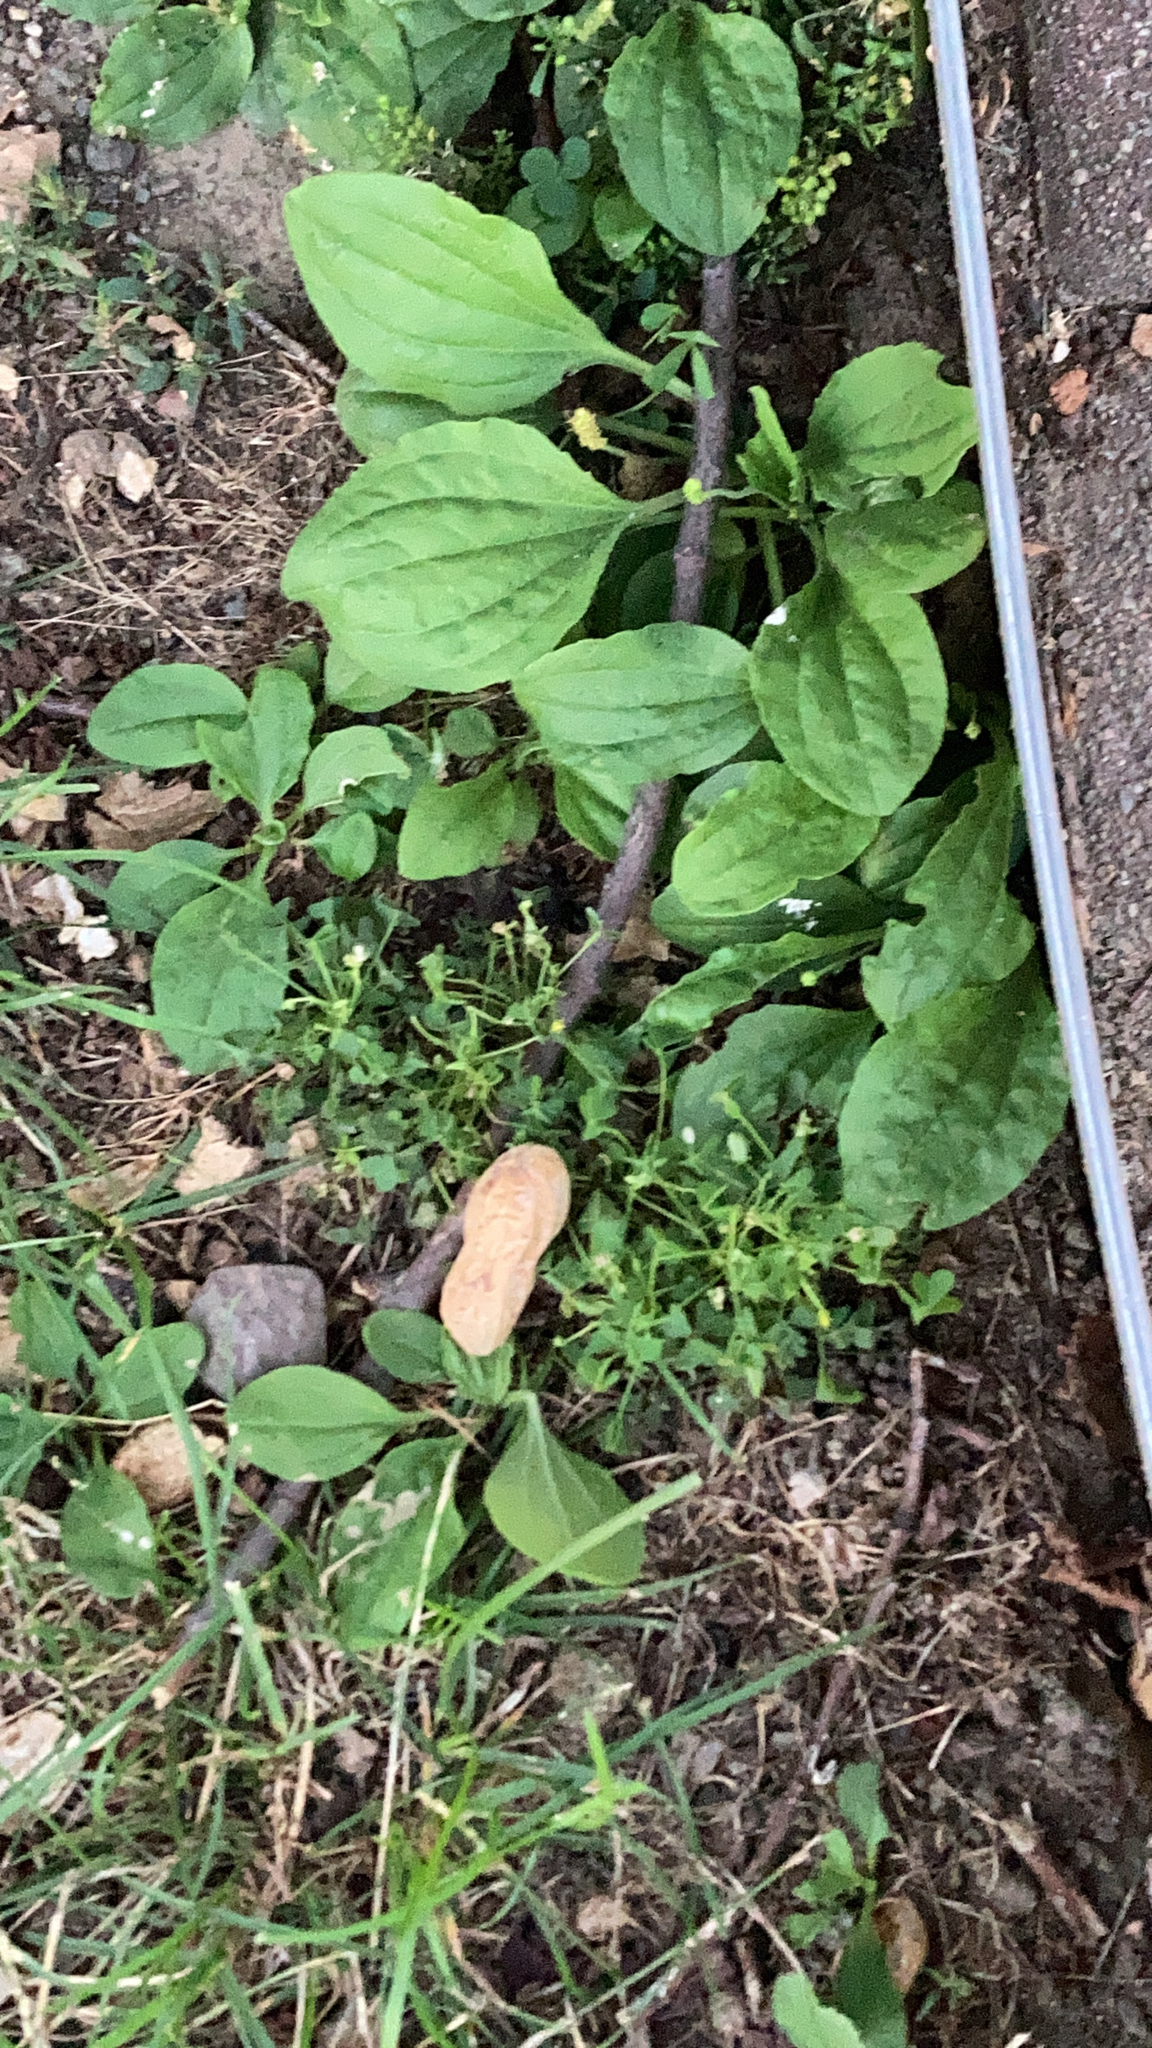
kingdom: Plantae
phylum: Tracheophyta
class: Magnoliopsida
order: Lamiales
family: Plantaginaceae
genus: Plantago
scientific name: Plantago major
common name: Common plantain
